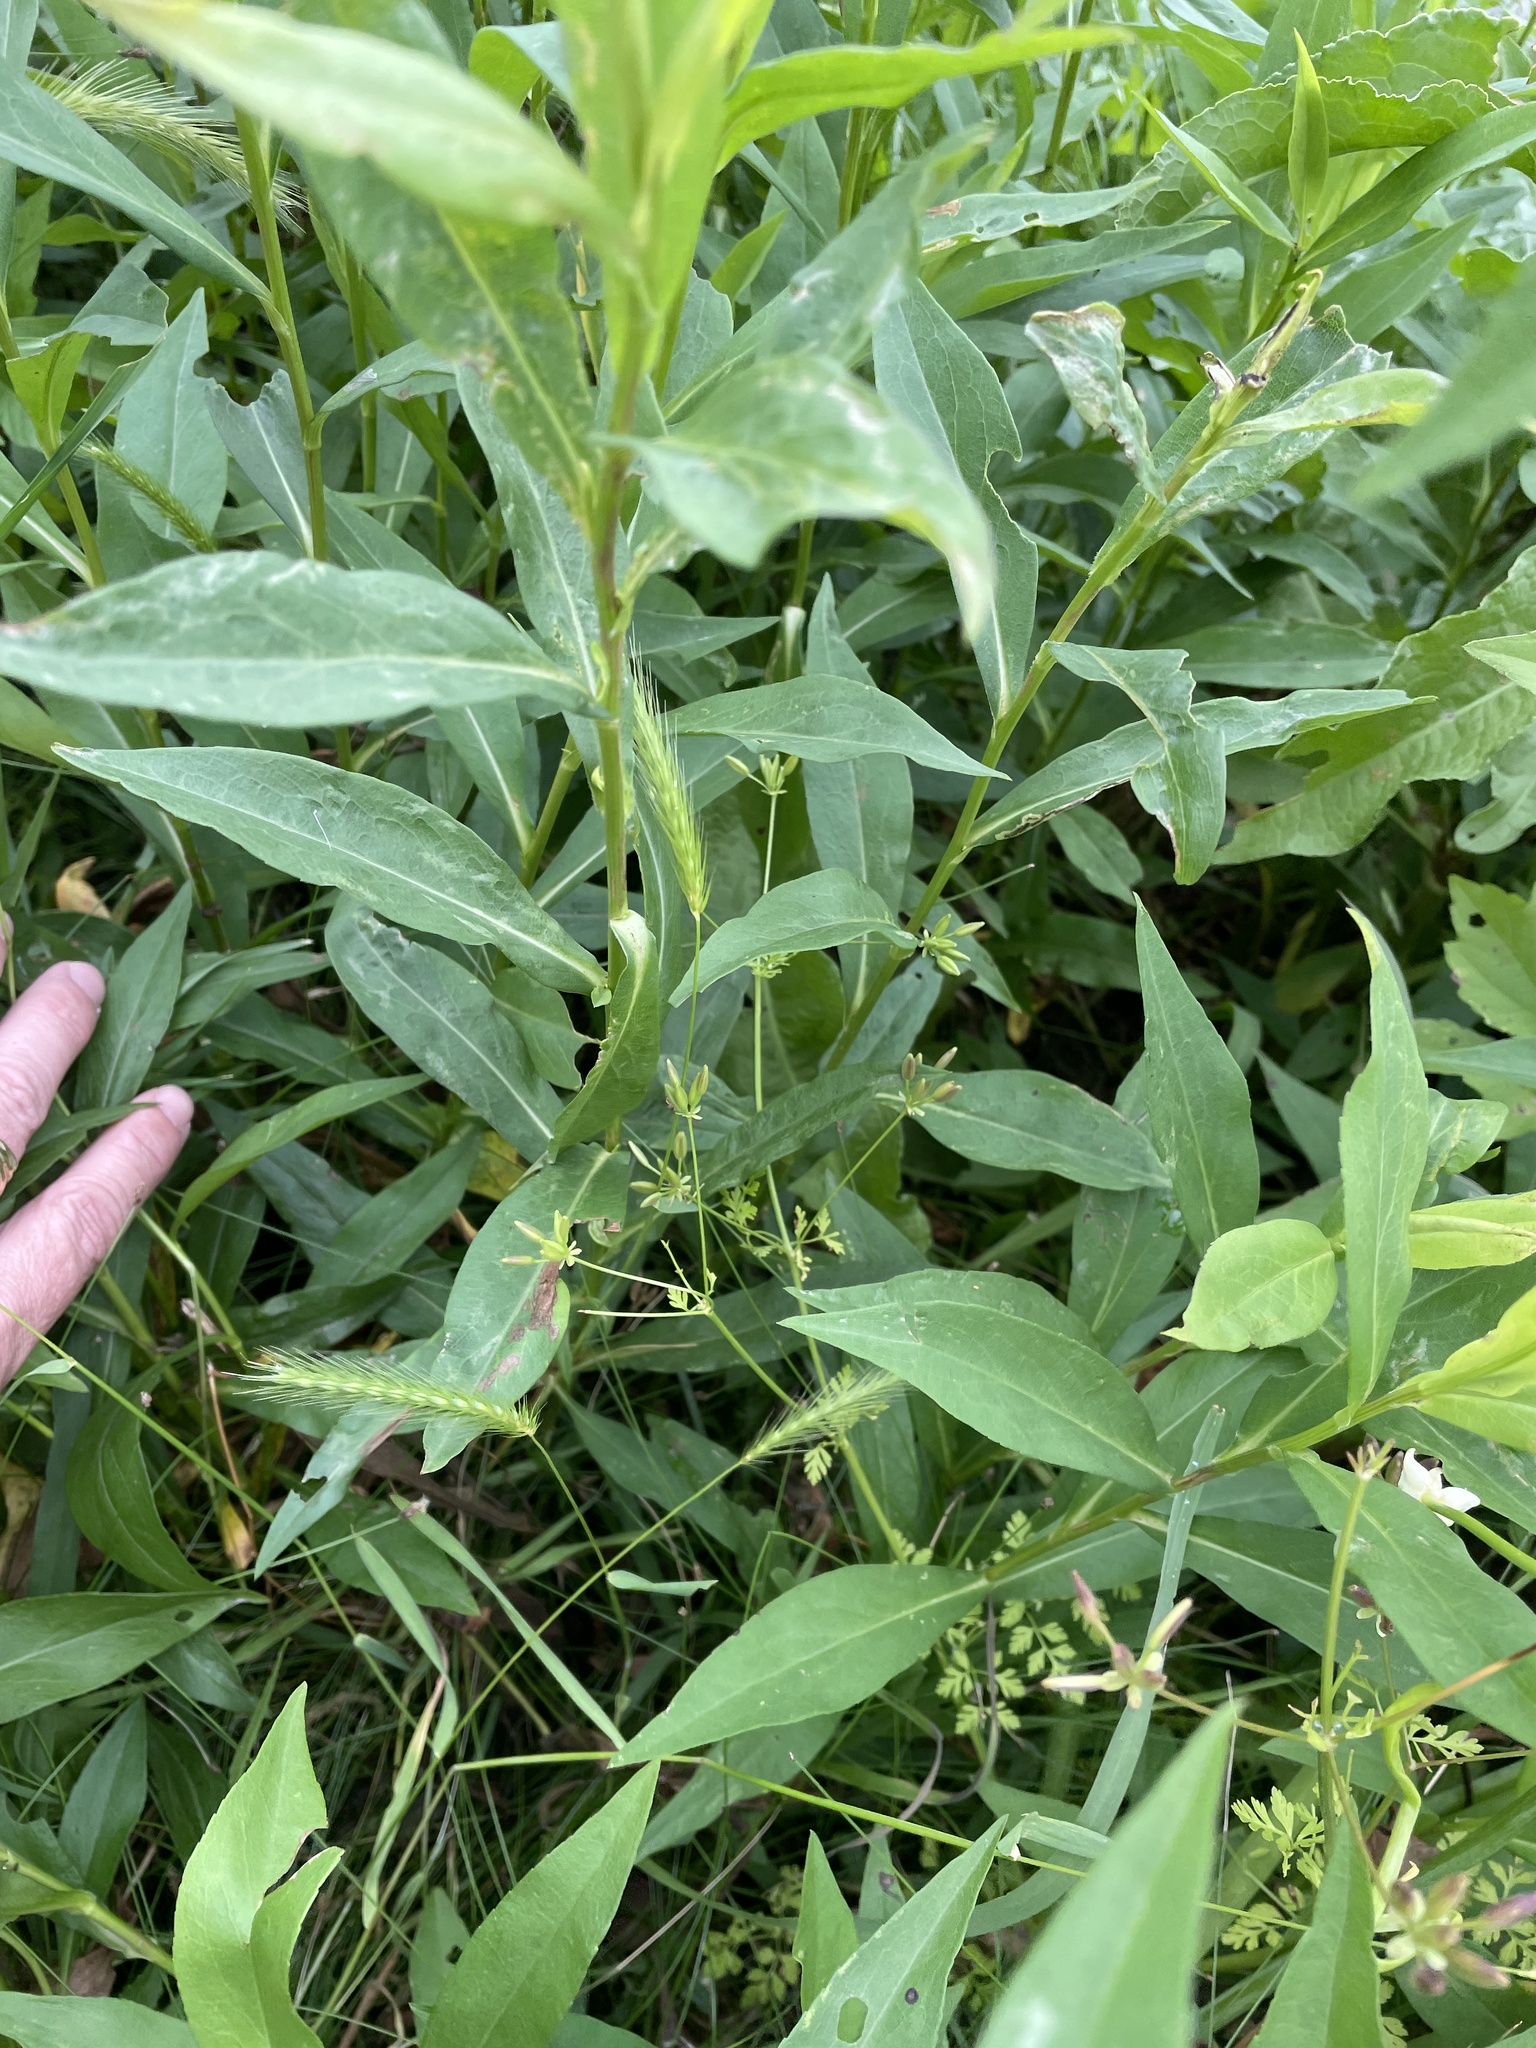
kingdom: Plantae
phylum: Tracheophyta
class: Magnoliopsida
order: Apiales
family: Apiaceae
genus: Chaerophyllum
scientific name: Chaerophyllum tainturieri
